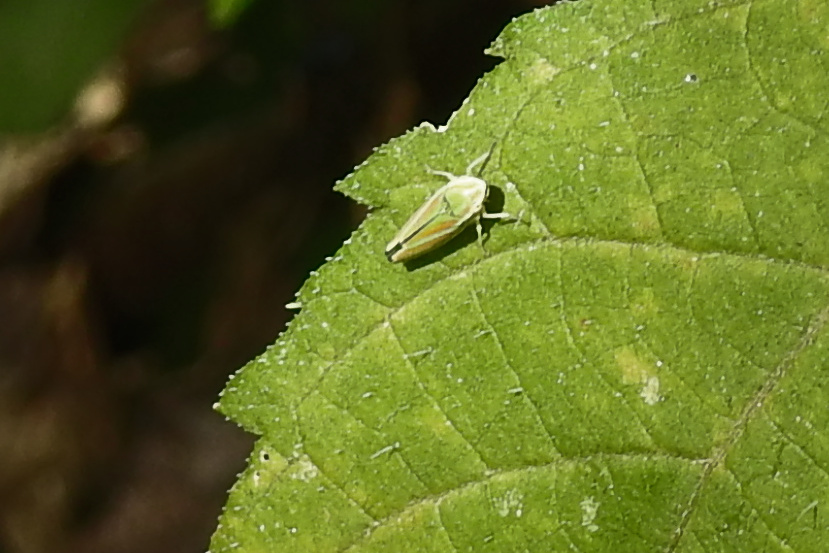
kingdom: Animalia
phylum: Arthropoda
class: Insecta
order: Hemiptera
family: Cicadellidae
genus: Graphocephala
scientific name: Graphocephala versuta
